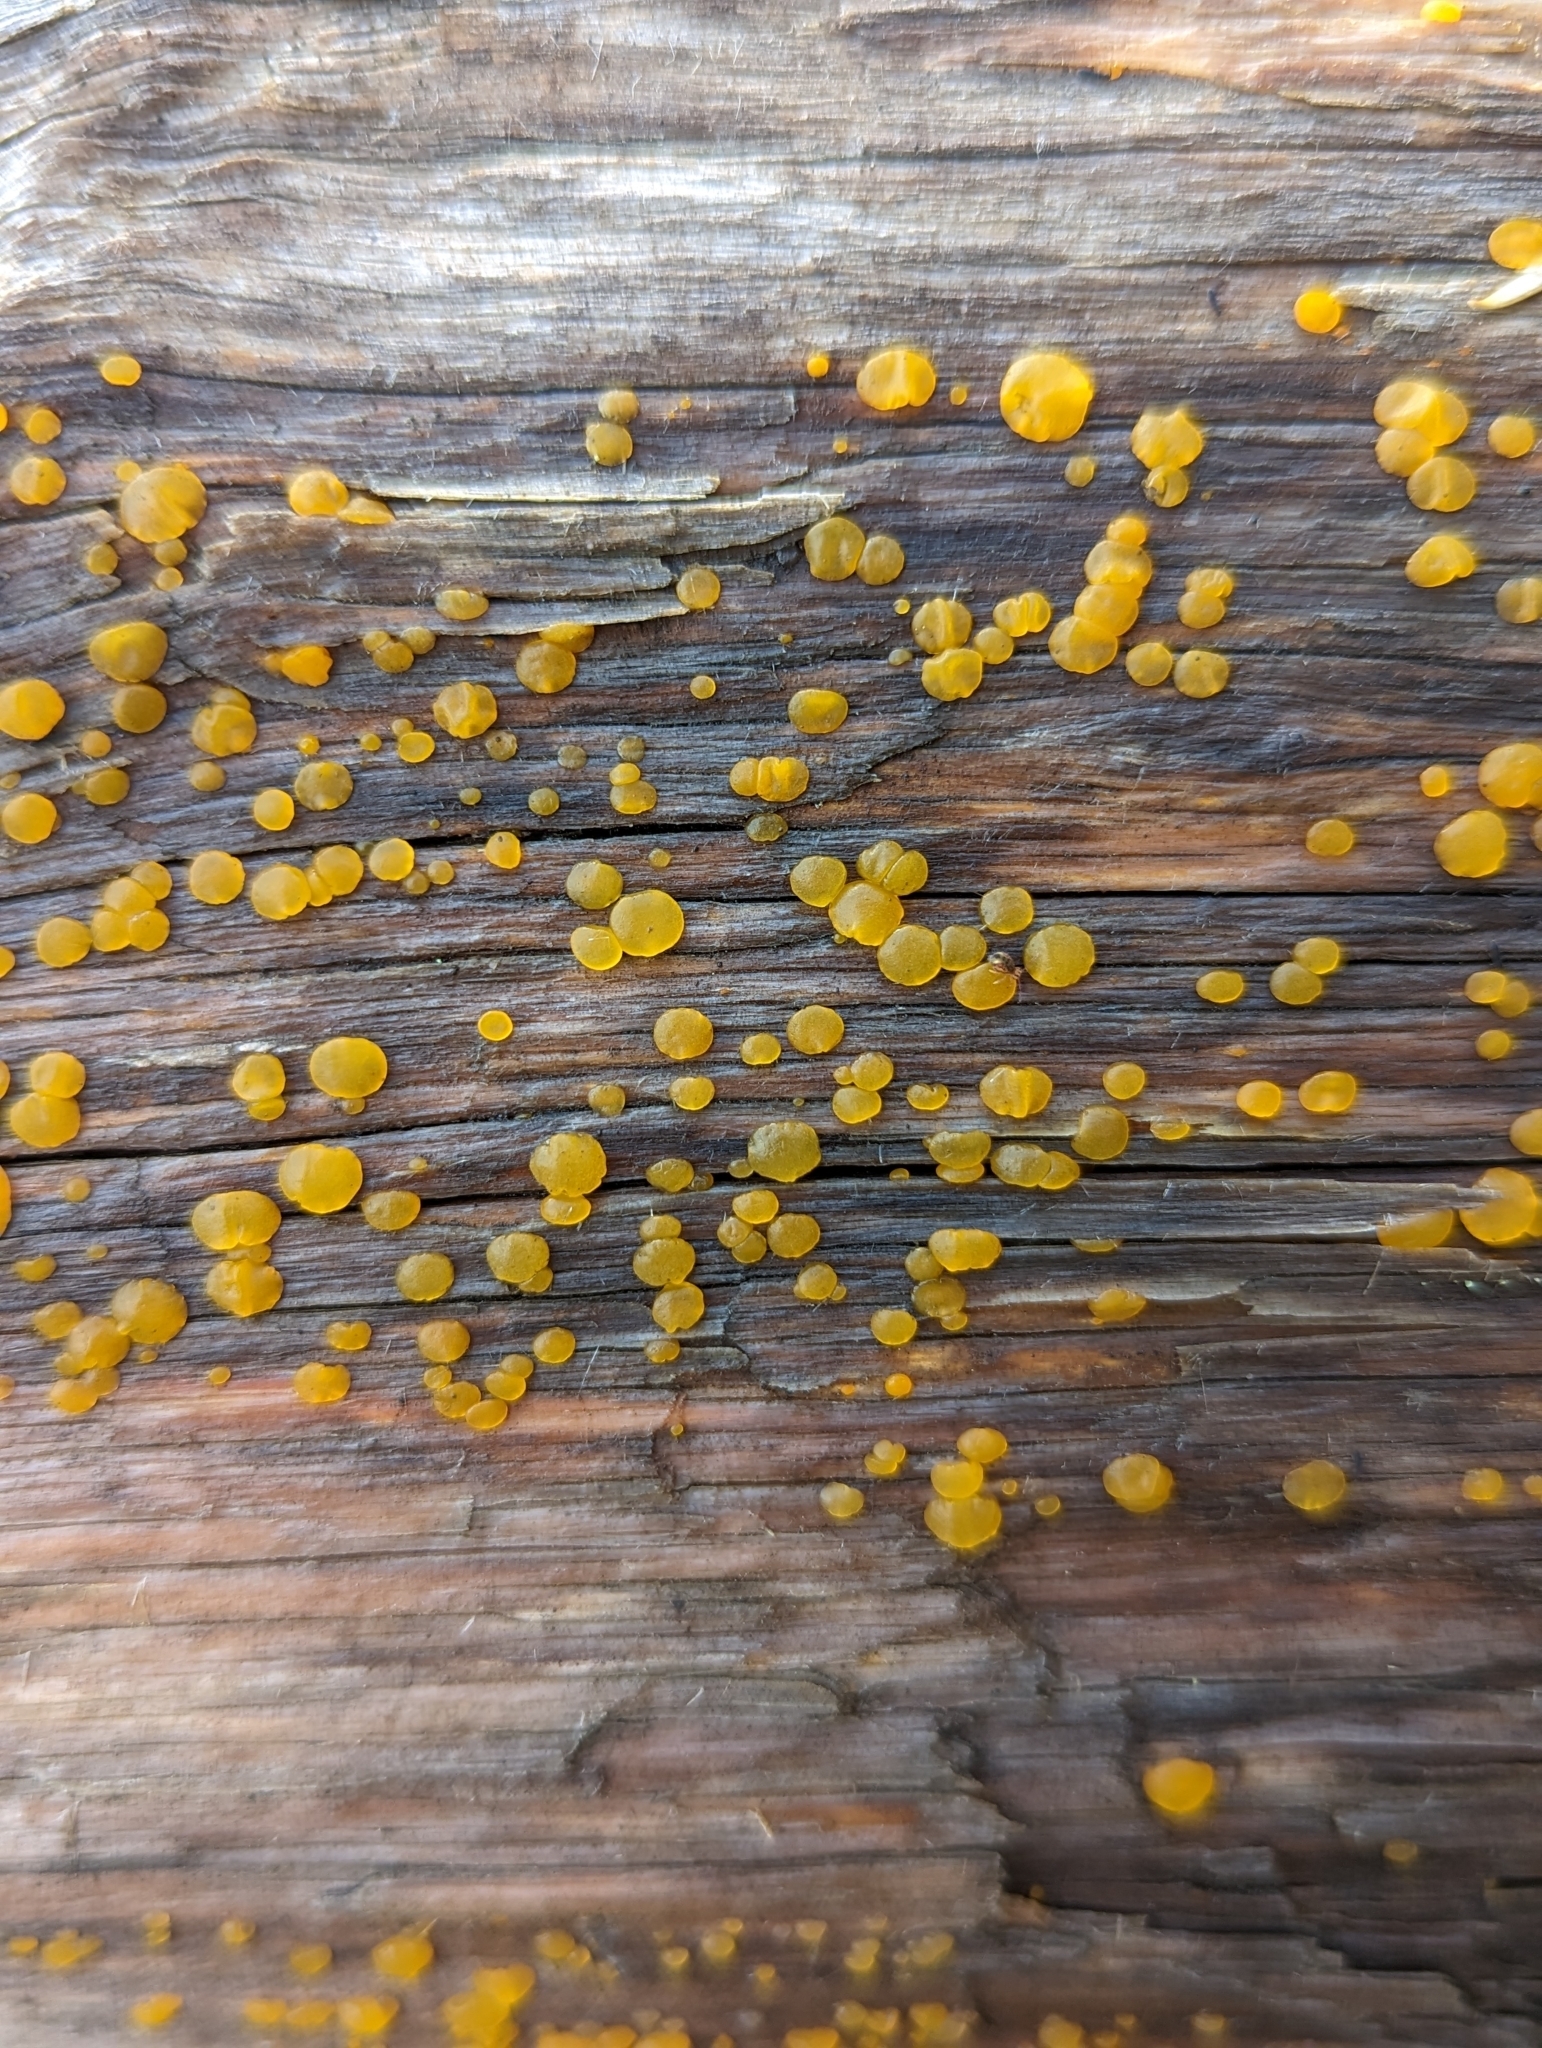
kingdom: Fungi
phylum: Basidiomycota
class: Dacrymycetes
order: Dacrymycetales
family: Dacrymycetaceae
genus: Dacrymyces
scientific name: Dacrymyces stillatus
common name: Common jelly spot
